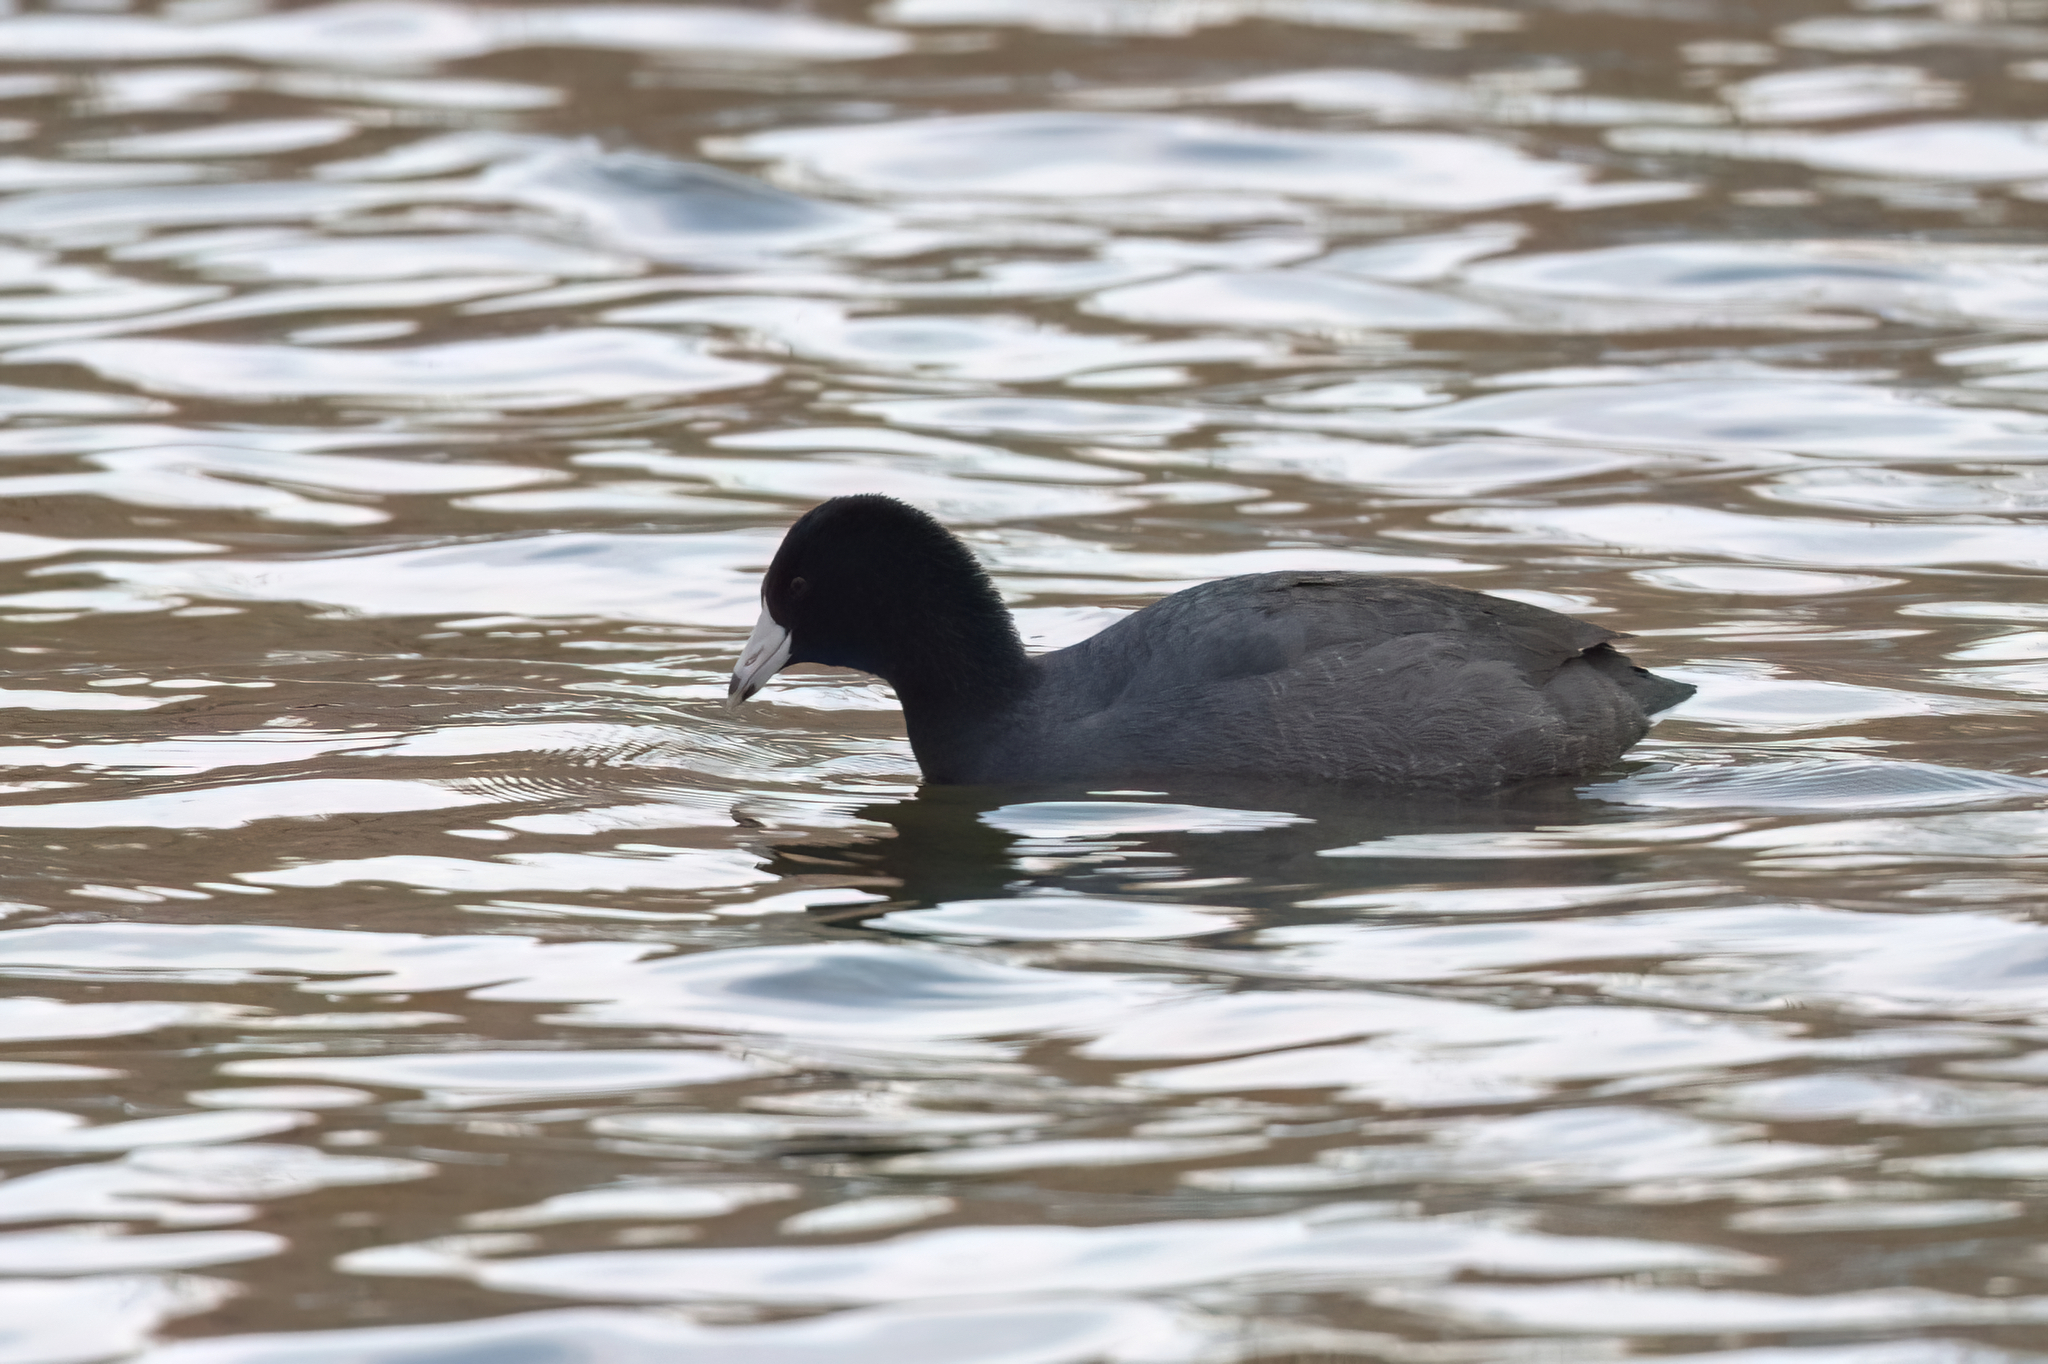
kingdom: Animalia
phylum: Chordata
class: Aves
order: Gruiformes
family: Rallidae
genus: Fulica
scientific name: Fulica americana
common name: American coot
